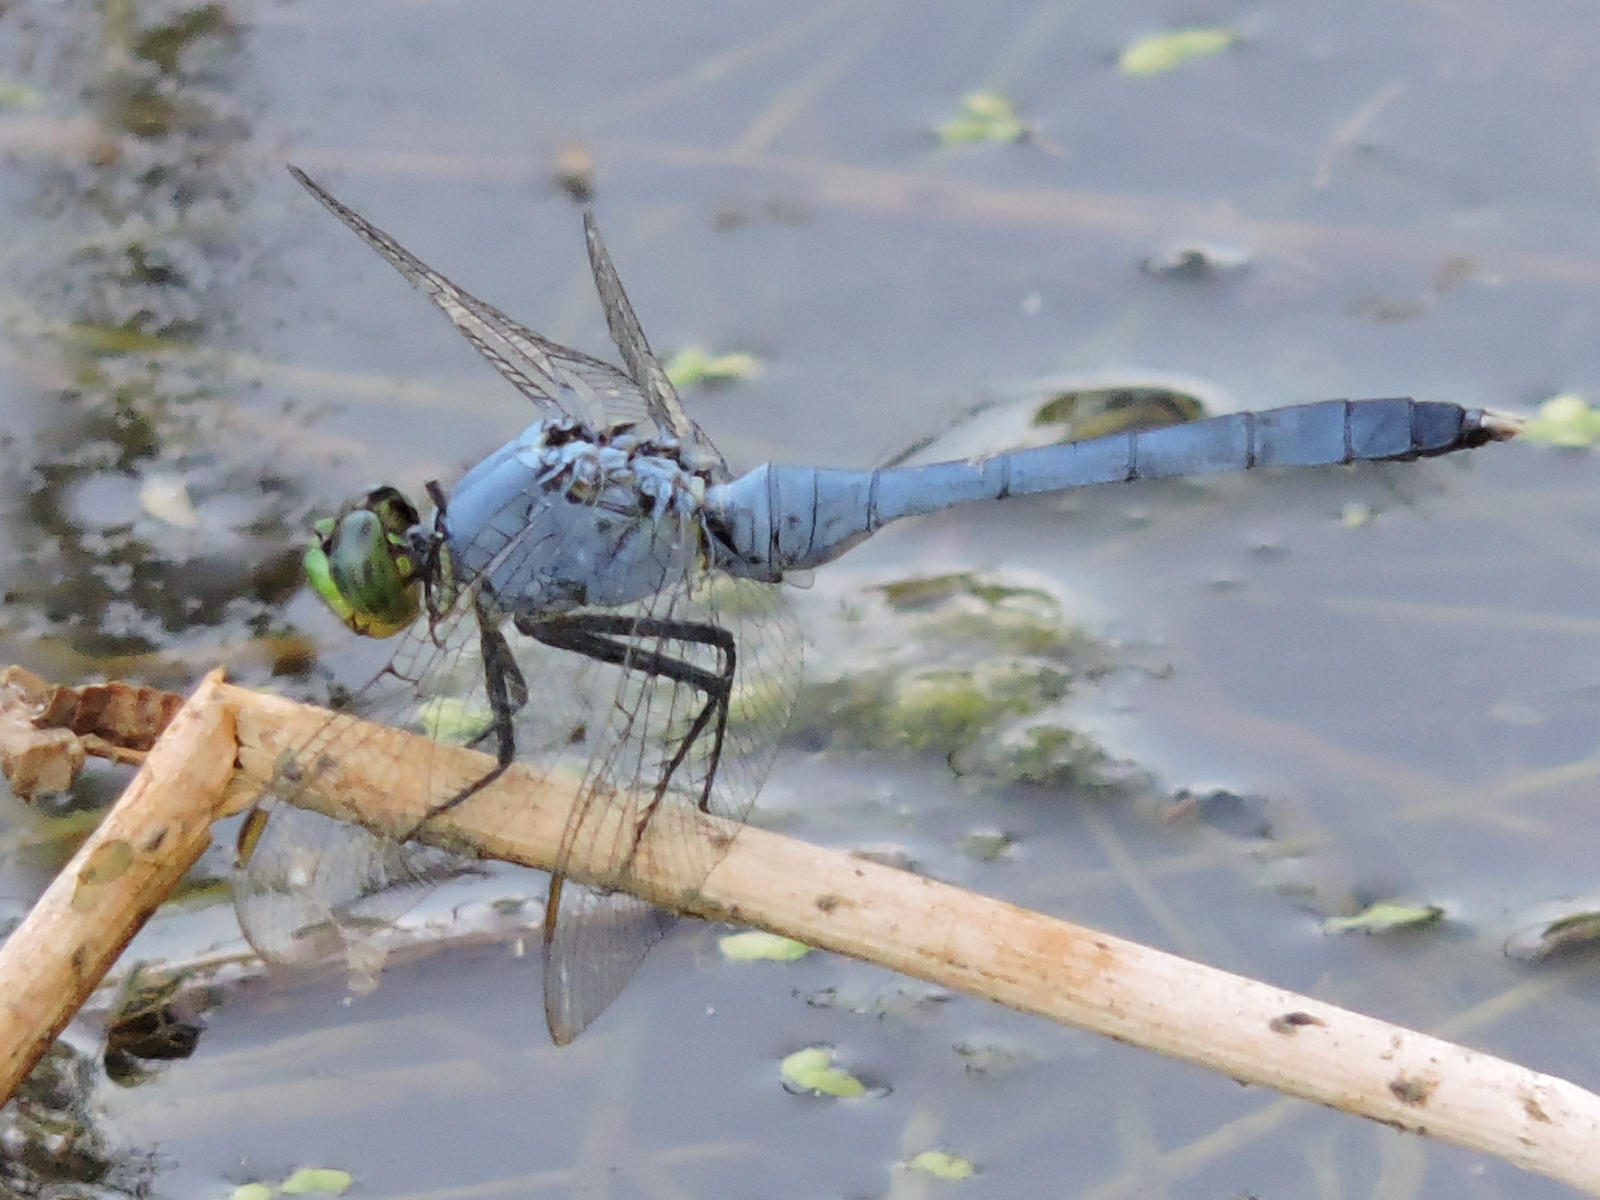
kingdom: Animalia
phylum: Arthropoda
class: Insecta
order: Odonata
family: Libellulidae
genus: Erythemis
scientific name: Erythemis simplicicollis
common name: Eastern pondhawk
